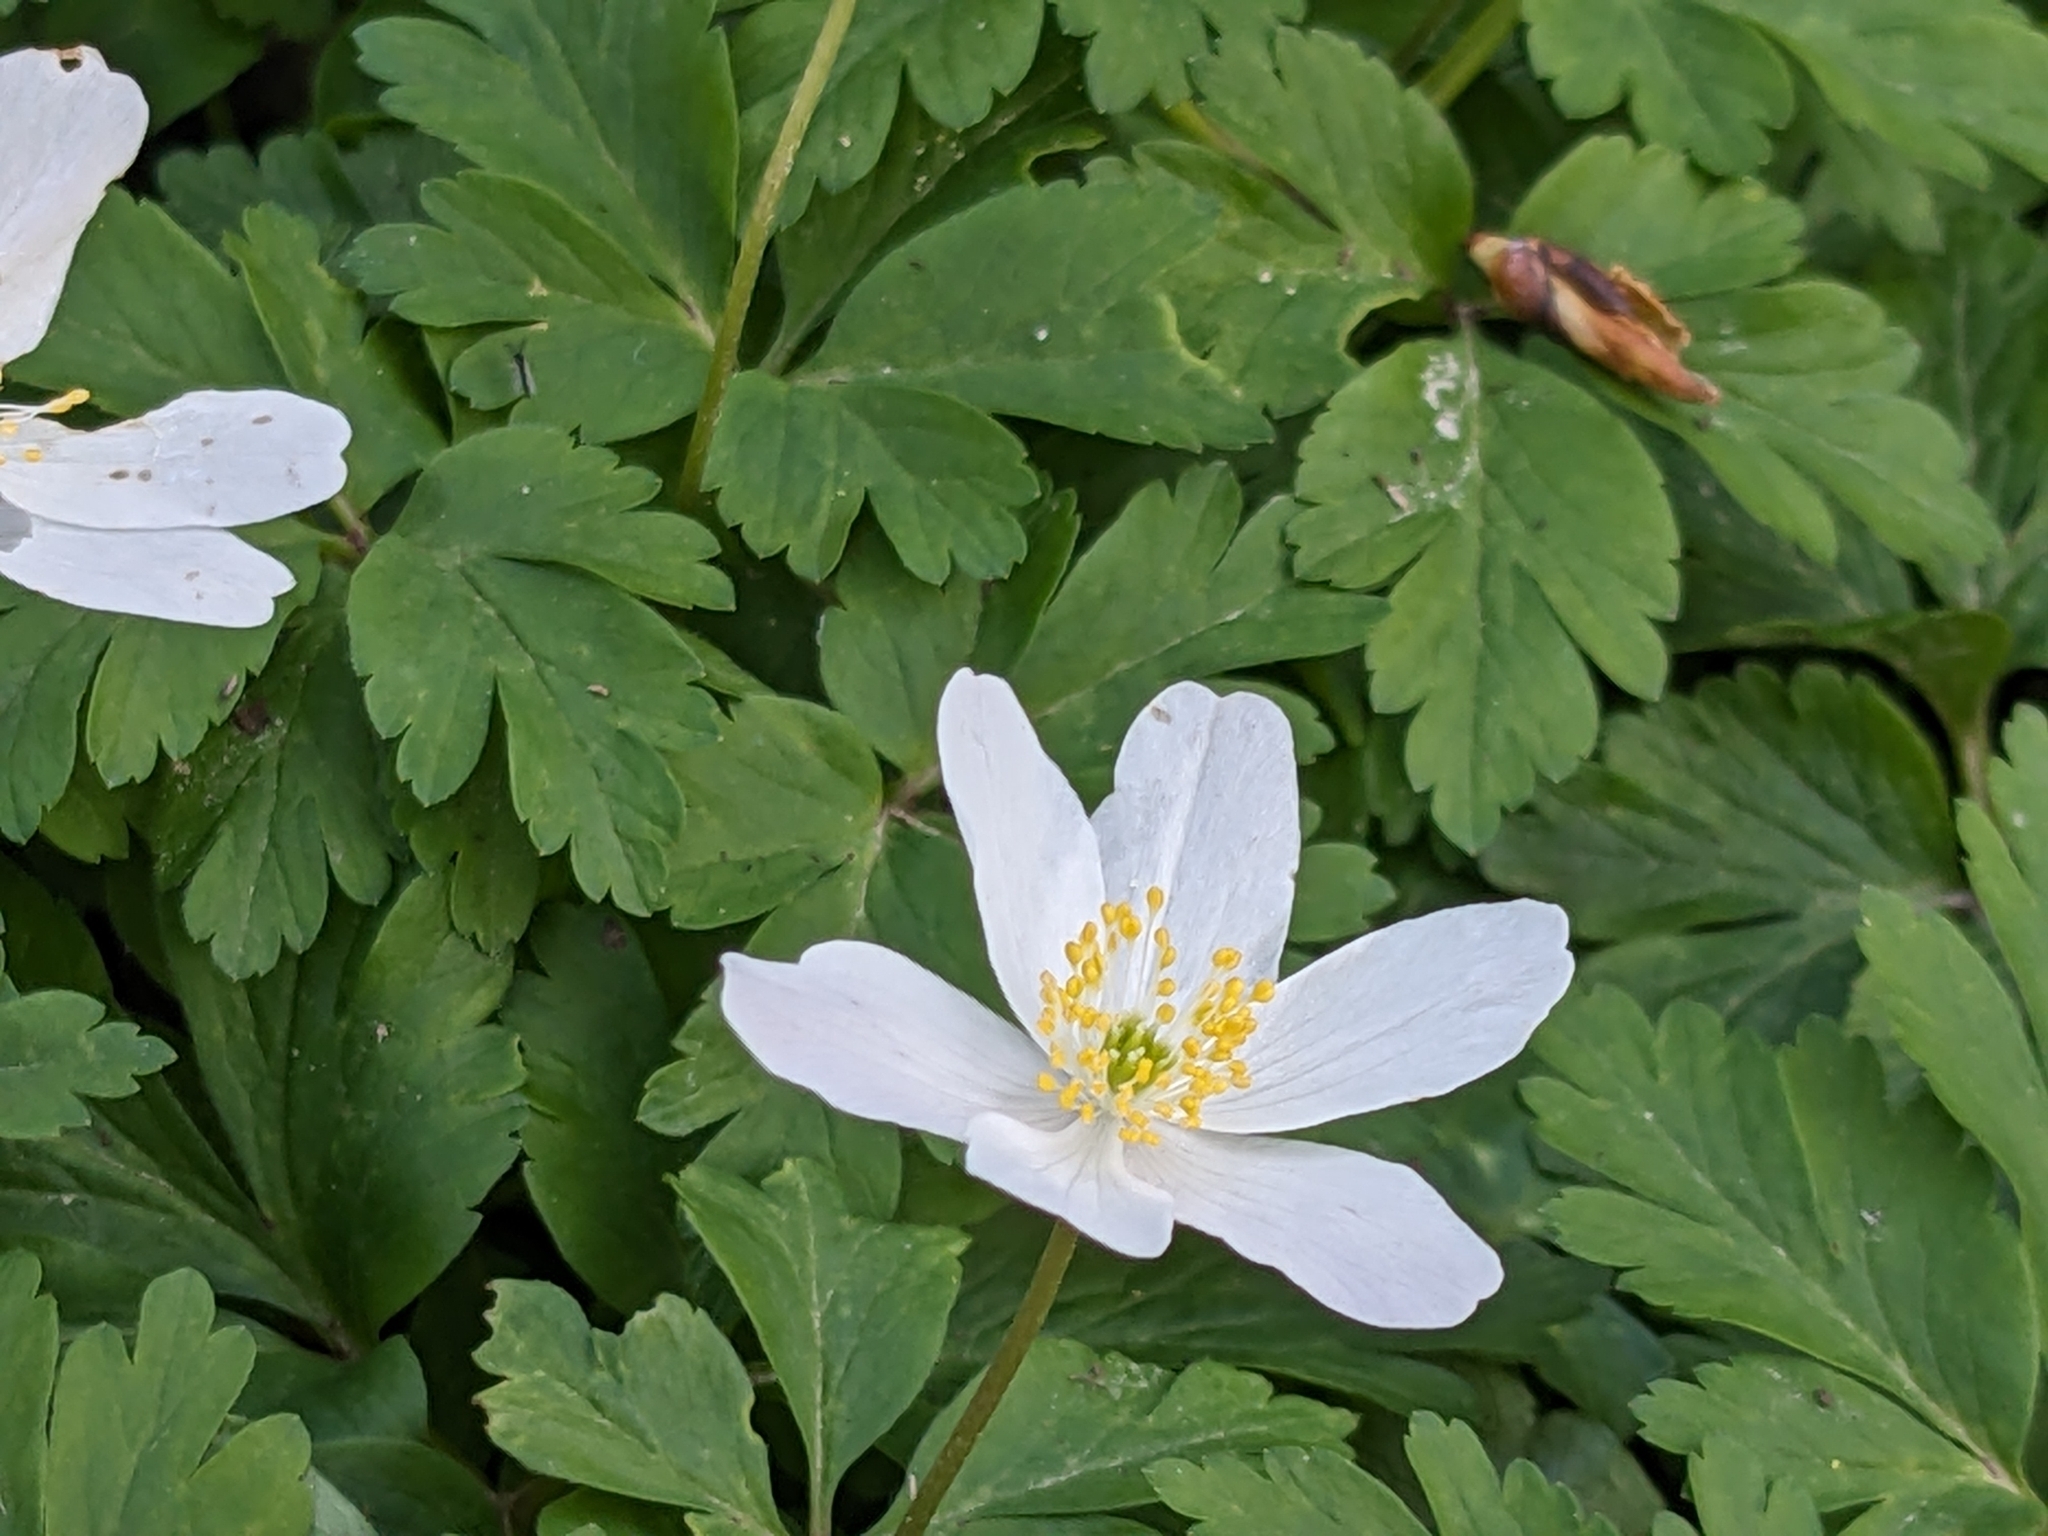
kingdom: Plantae
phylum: Tracheophyta
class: Magnoliopsida
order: Ranunculales
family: Ranunculaceae
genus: Anemone
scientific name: Anemone nemorosa
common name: Wood anemone
